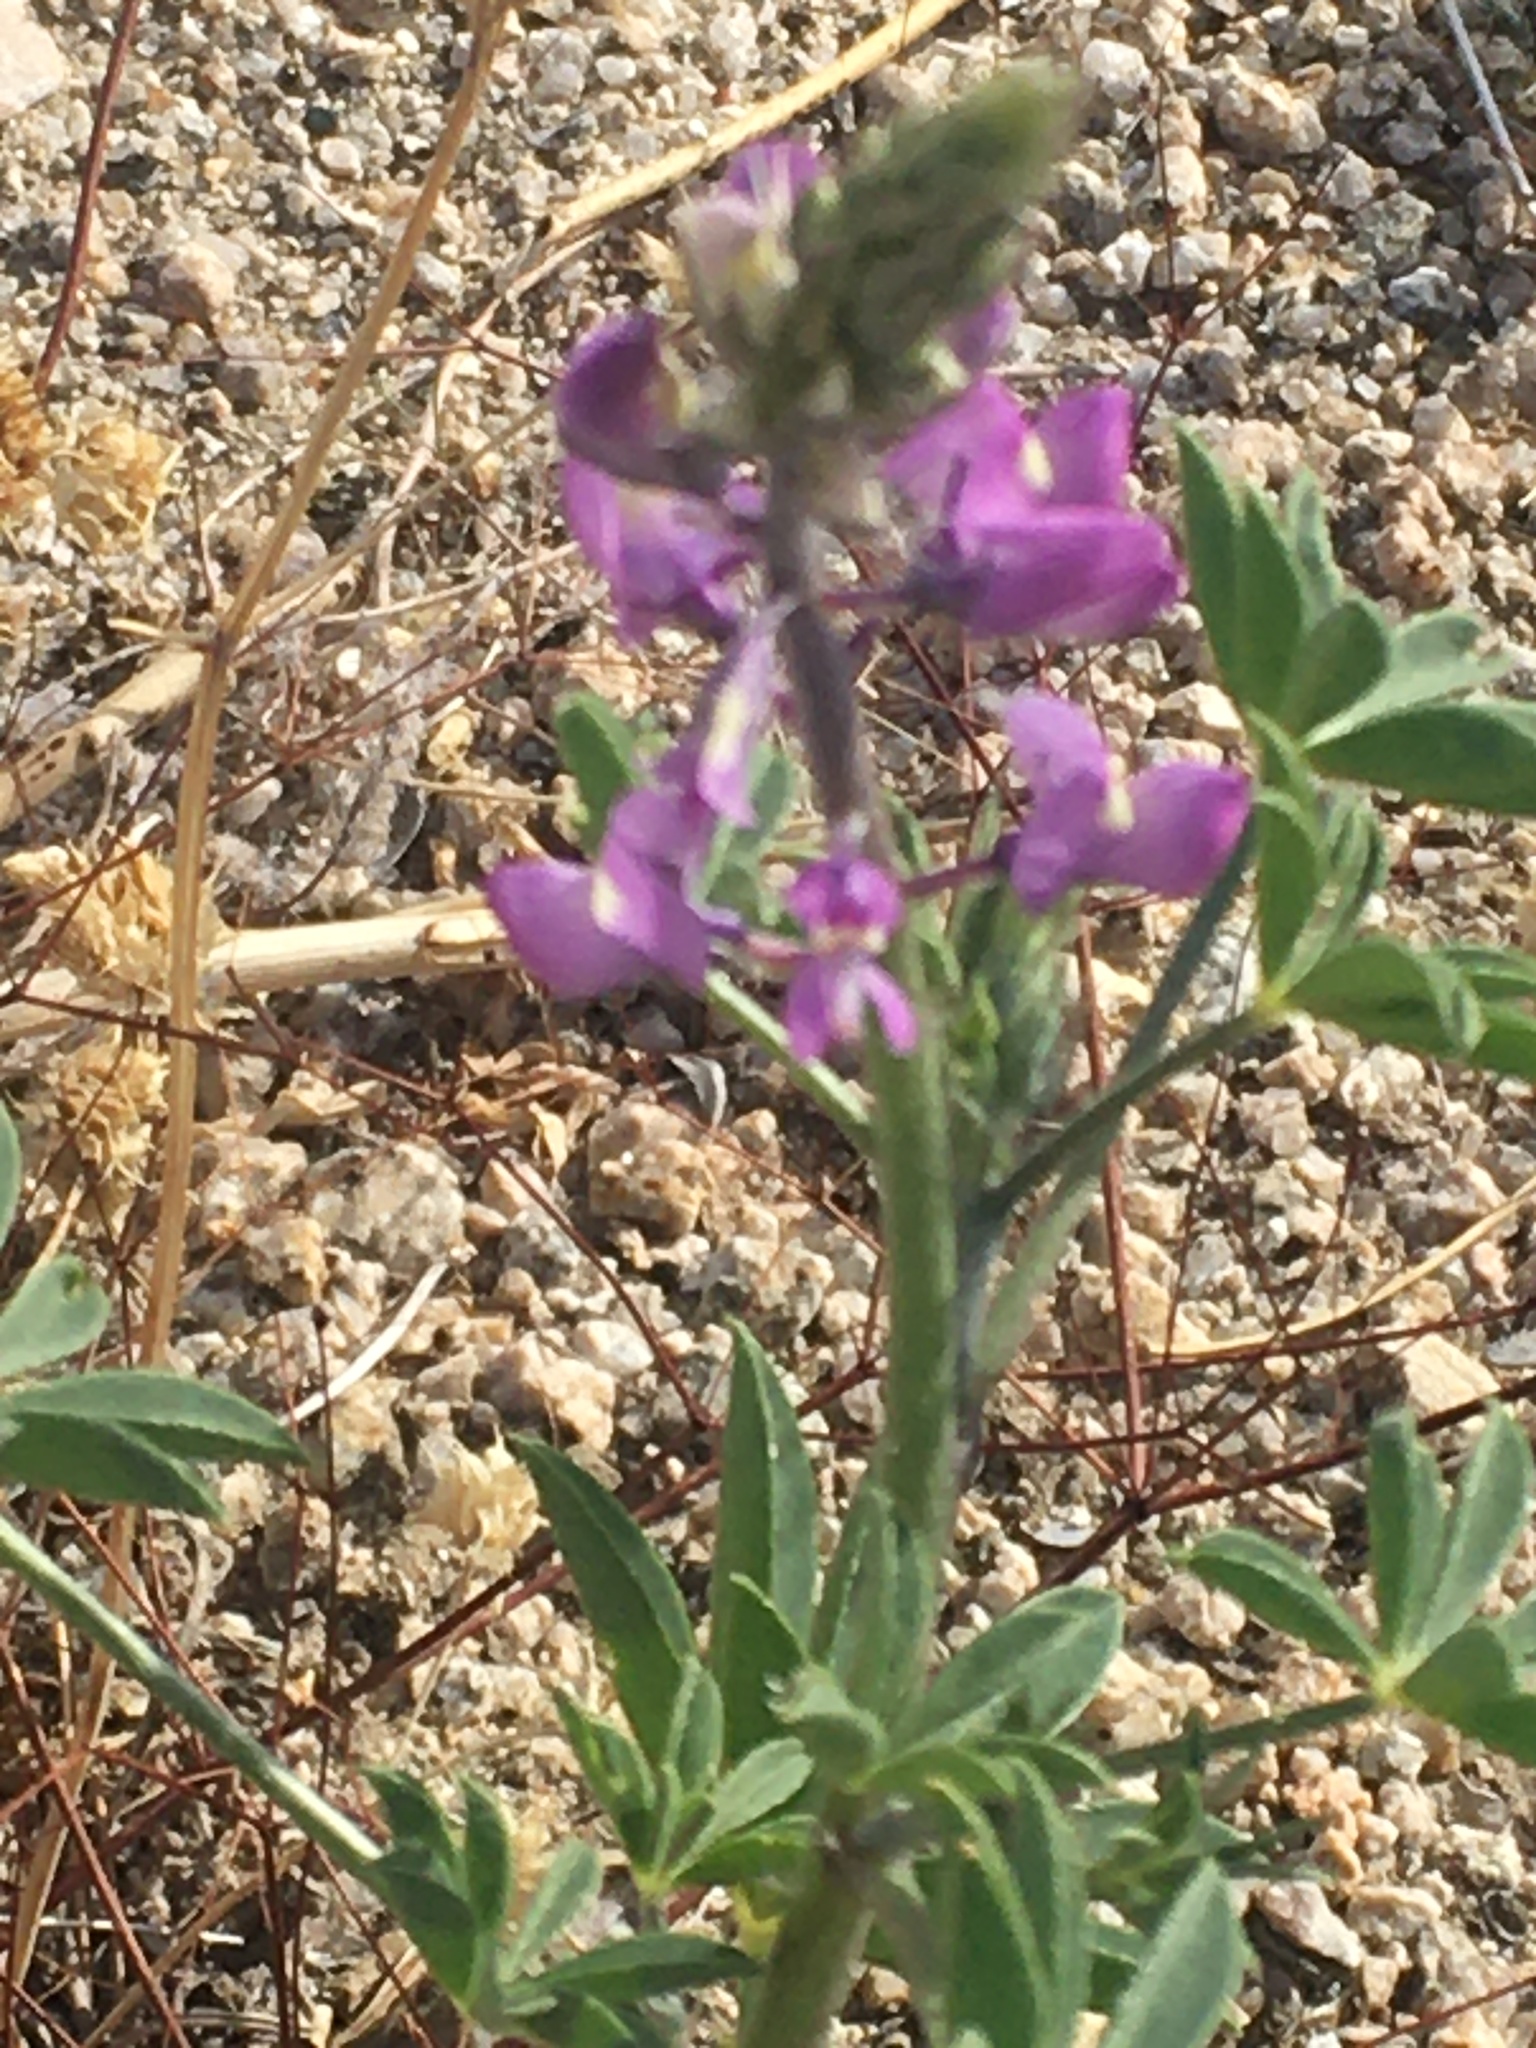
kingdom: Plantae
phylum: Tracheophyta
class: Magnoliopsida
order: Fabales
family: Fabaceae
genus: Lupinus
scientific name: Lupinus arizonicus
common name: Arizona lupine
